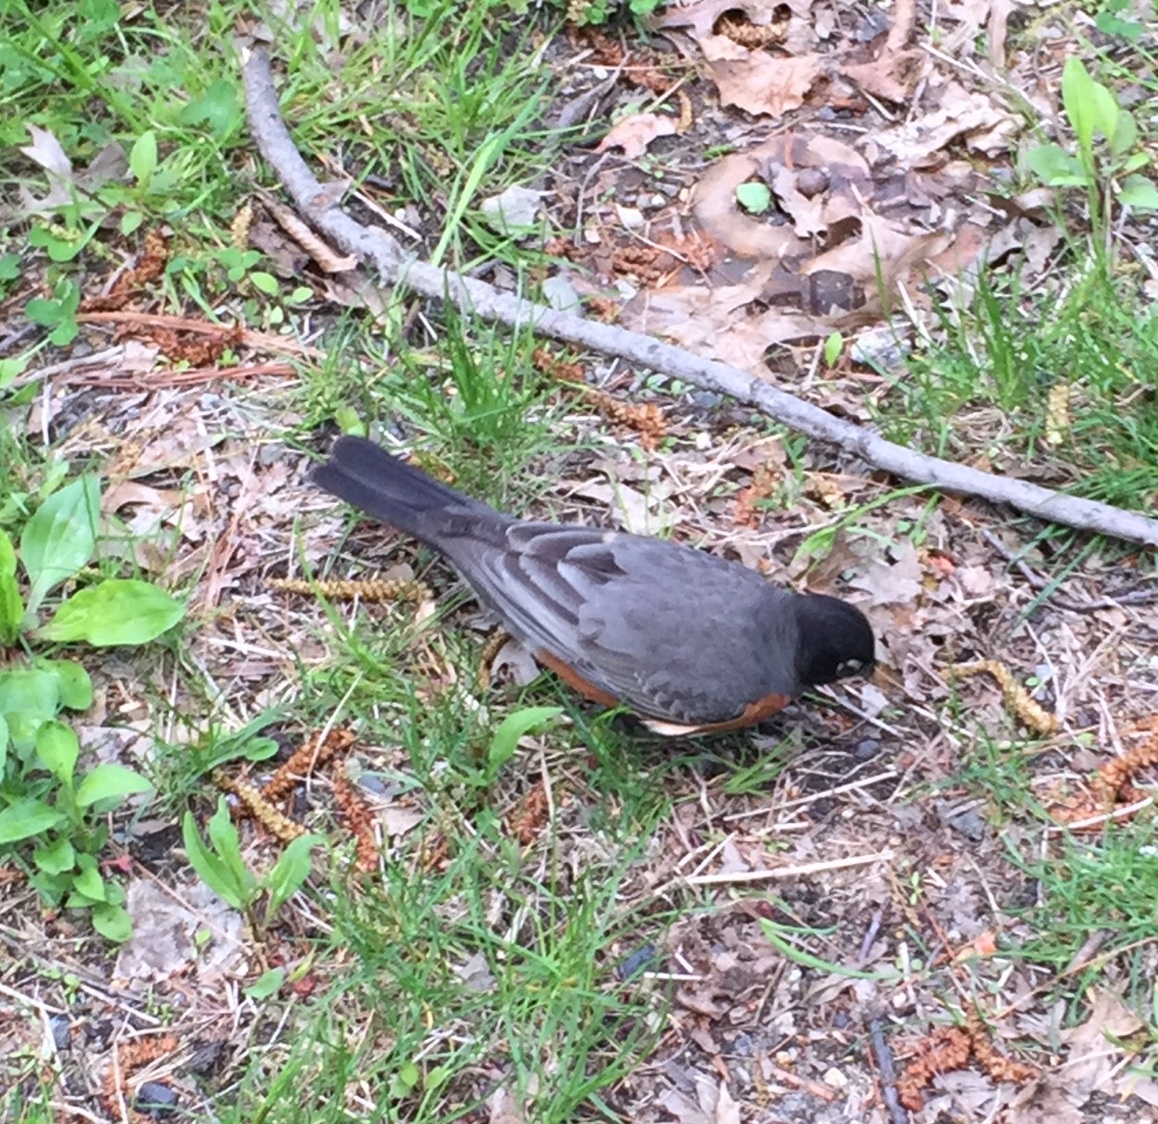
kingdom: Animalia
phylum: Chordata
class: Aves
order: Passeriformes
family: Turdidae
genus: Turdus
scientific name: Turdus migratorius
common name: American robin
